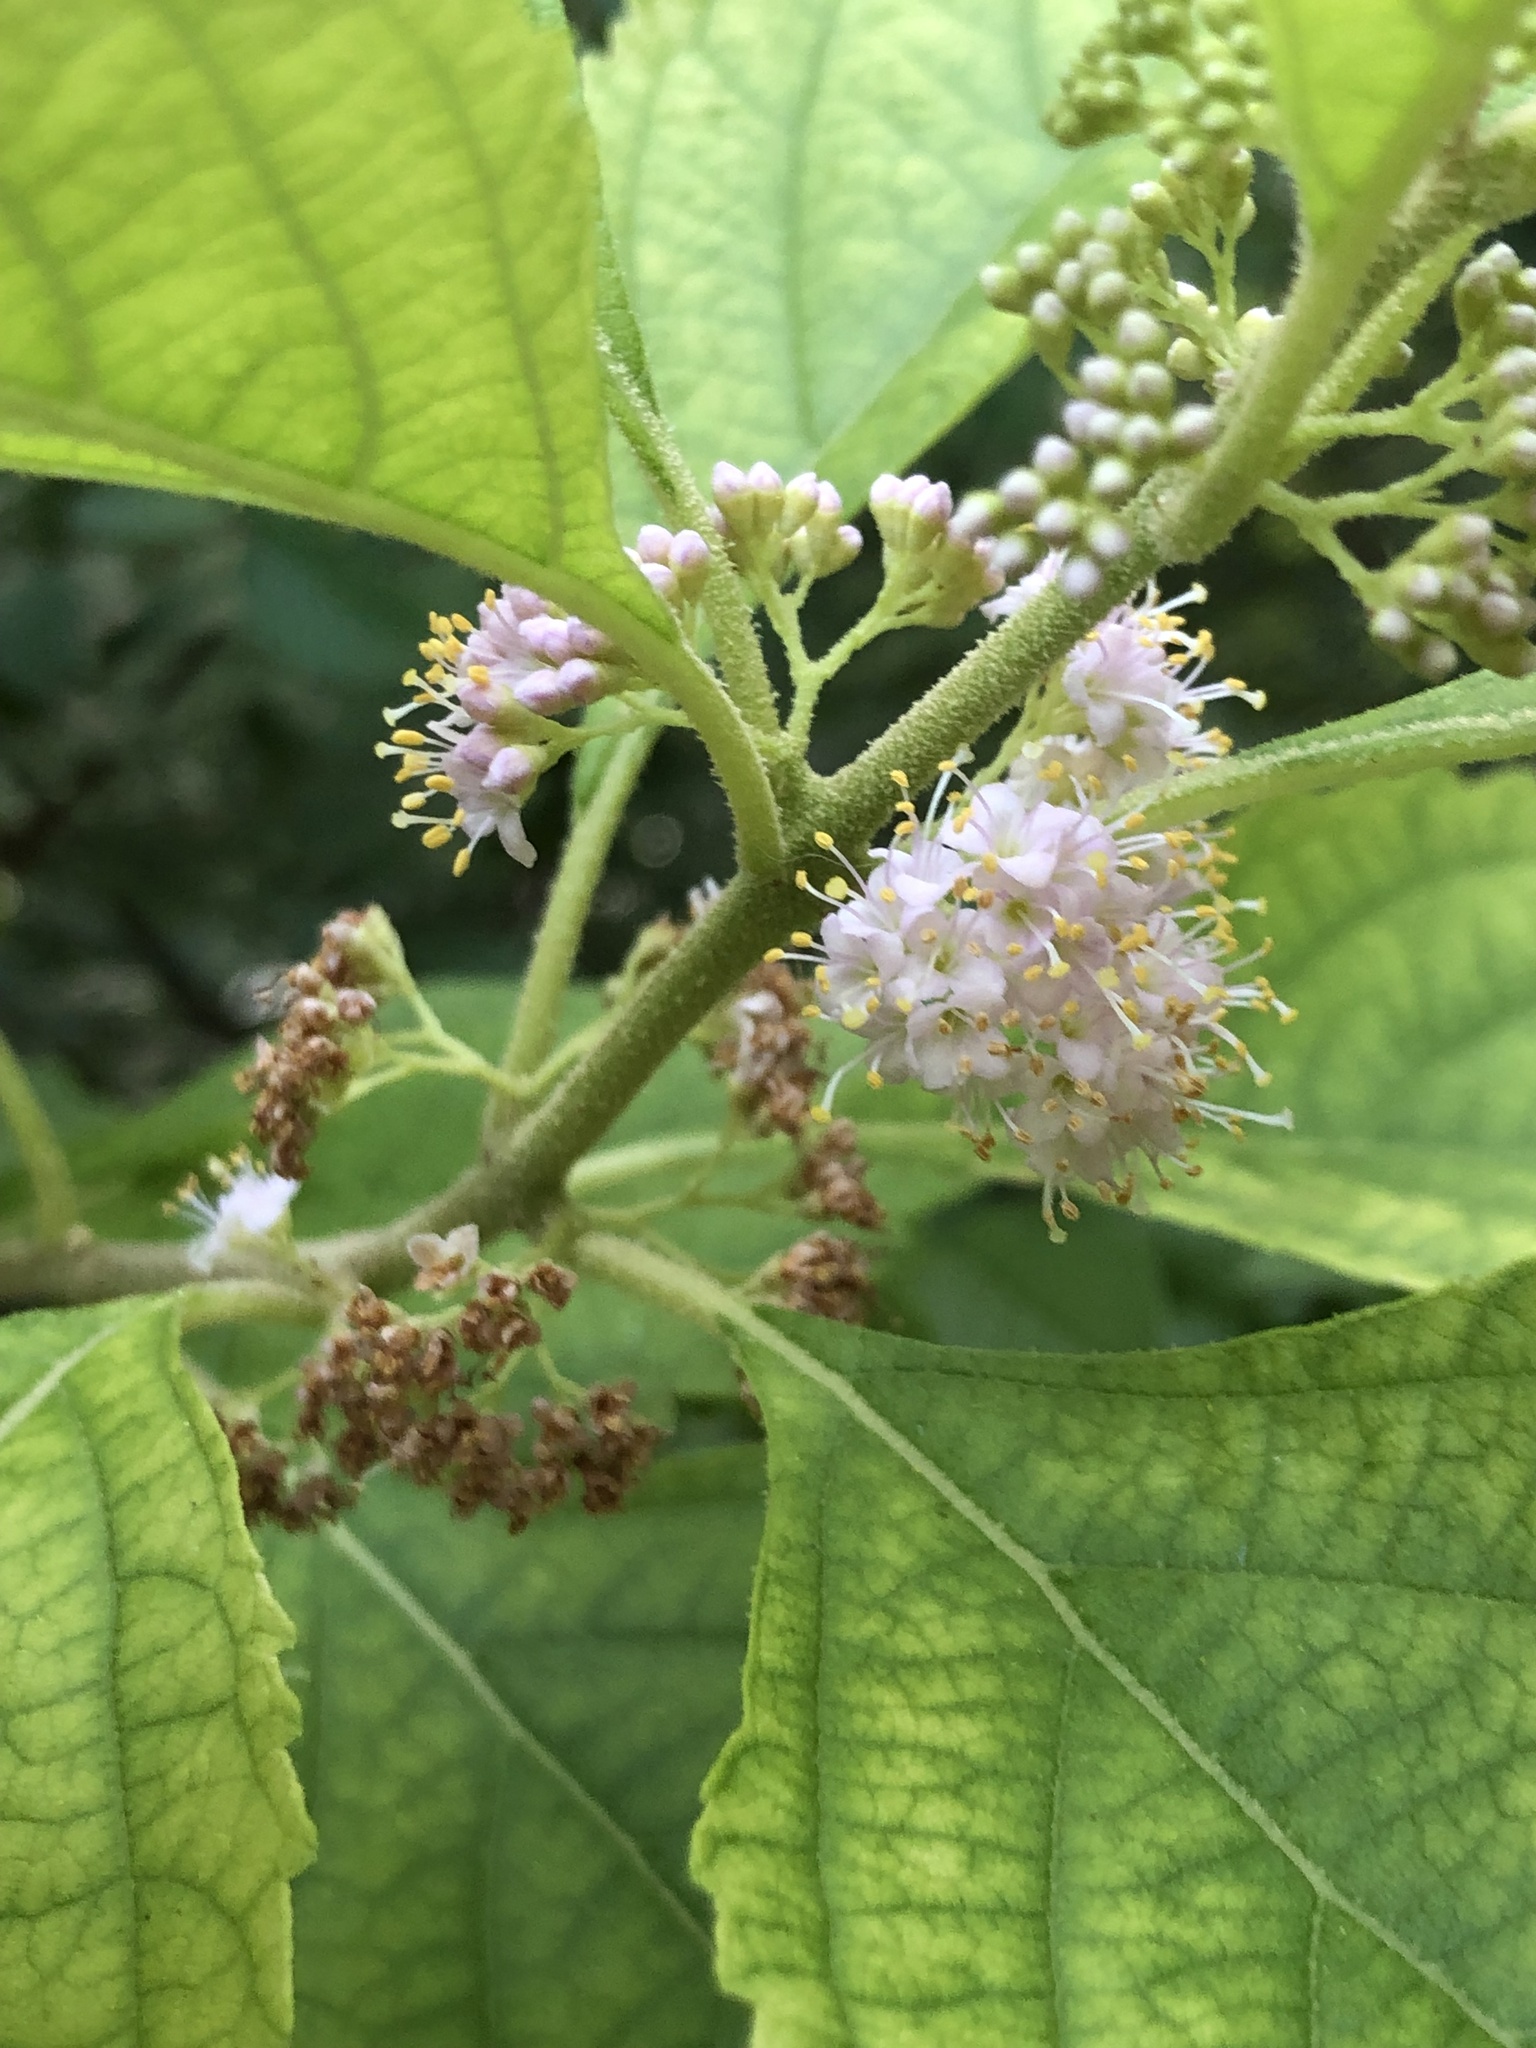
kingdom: Plantae
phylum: Tracheophyta
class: Magnoliopsida
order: Lamiales
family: Lamiaceae
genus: Callicarpa
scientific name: Callicarpa americana
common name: American beautyberry
